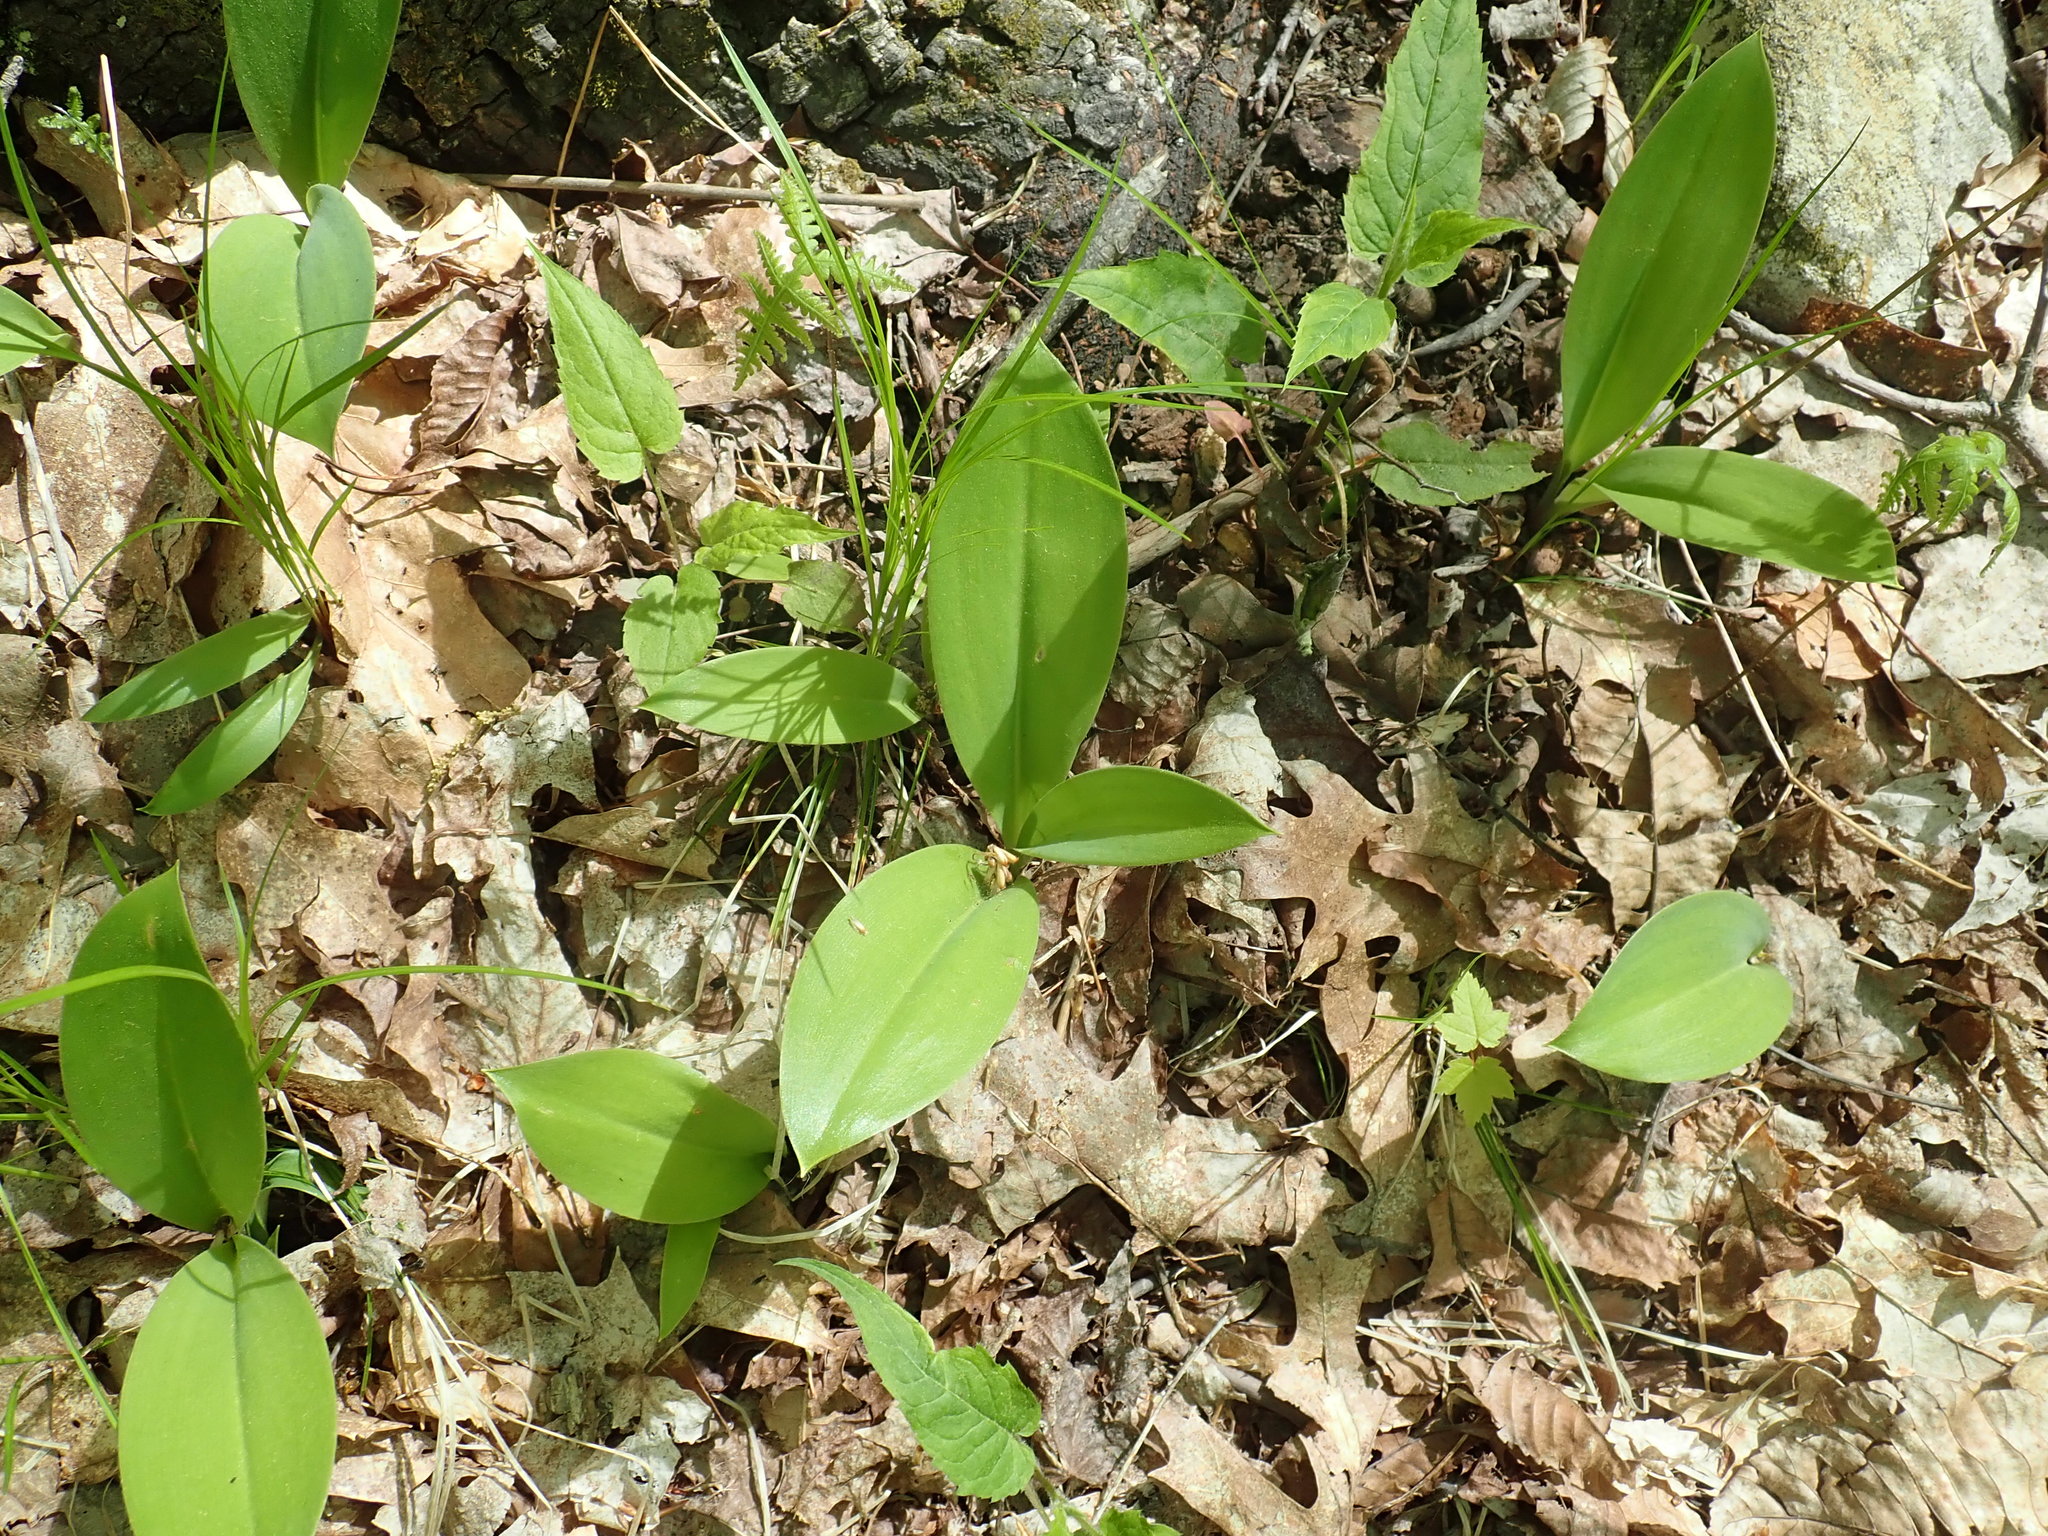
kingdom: Plantae
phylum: Tracheophyta
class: Liliopsida
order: Liliales
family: Liliaceae
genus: Clintonia
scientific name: Clintonia borealis
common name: Yellow clintonia
